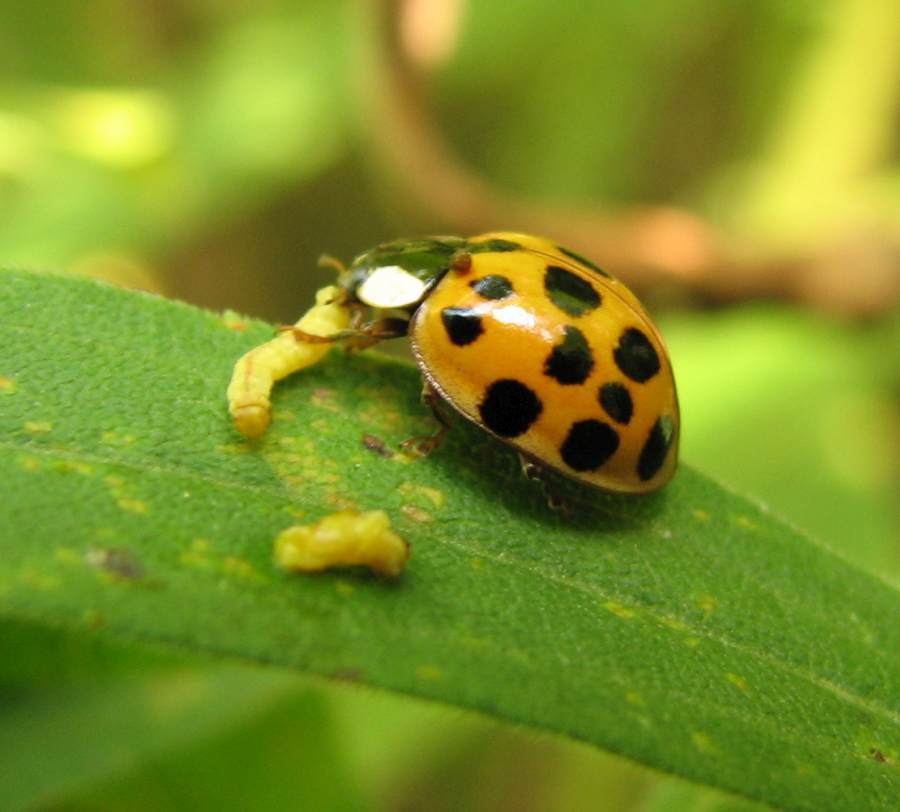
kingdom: Animalia
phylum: Arthropoda
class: Insecta
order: Coleoptera
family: Coccinellidae
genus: Harmonia
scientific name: Harmonia axyridis
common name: Harlequin ladybird
